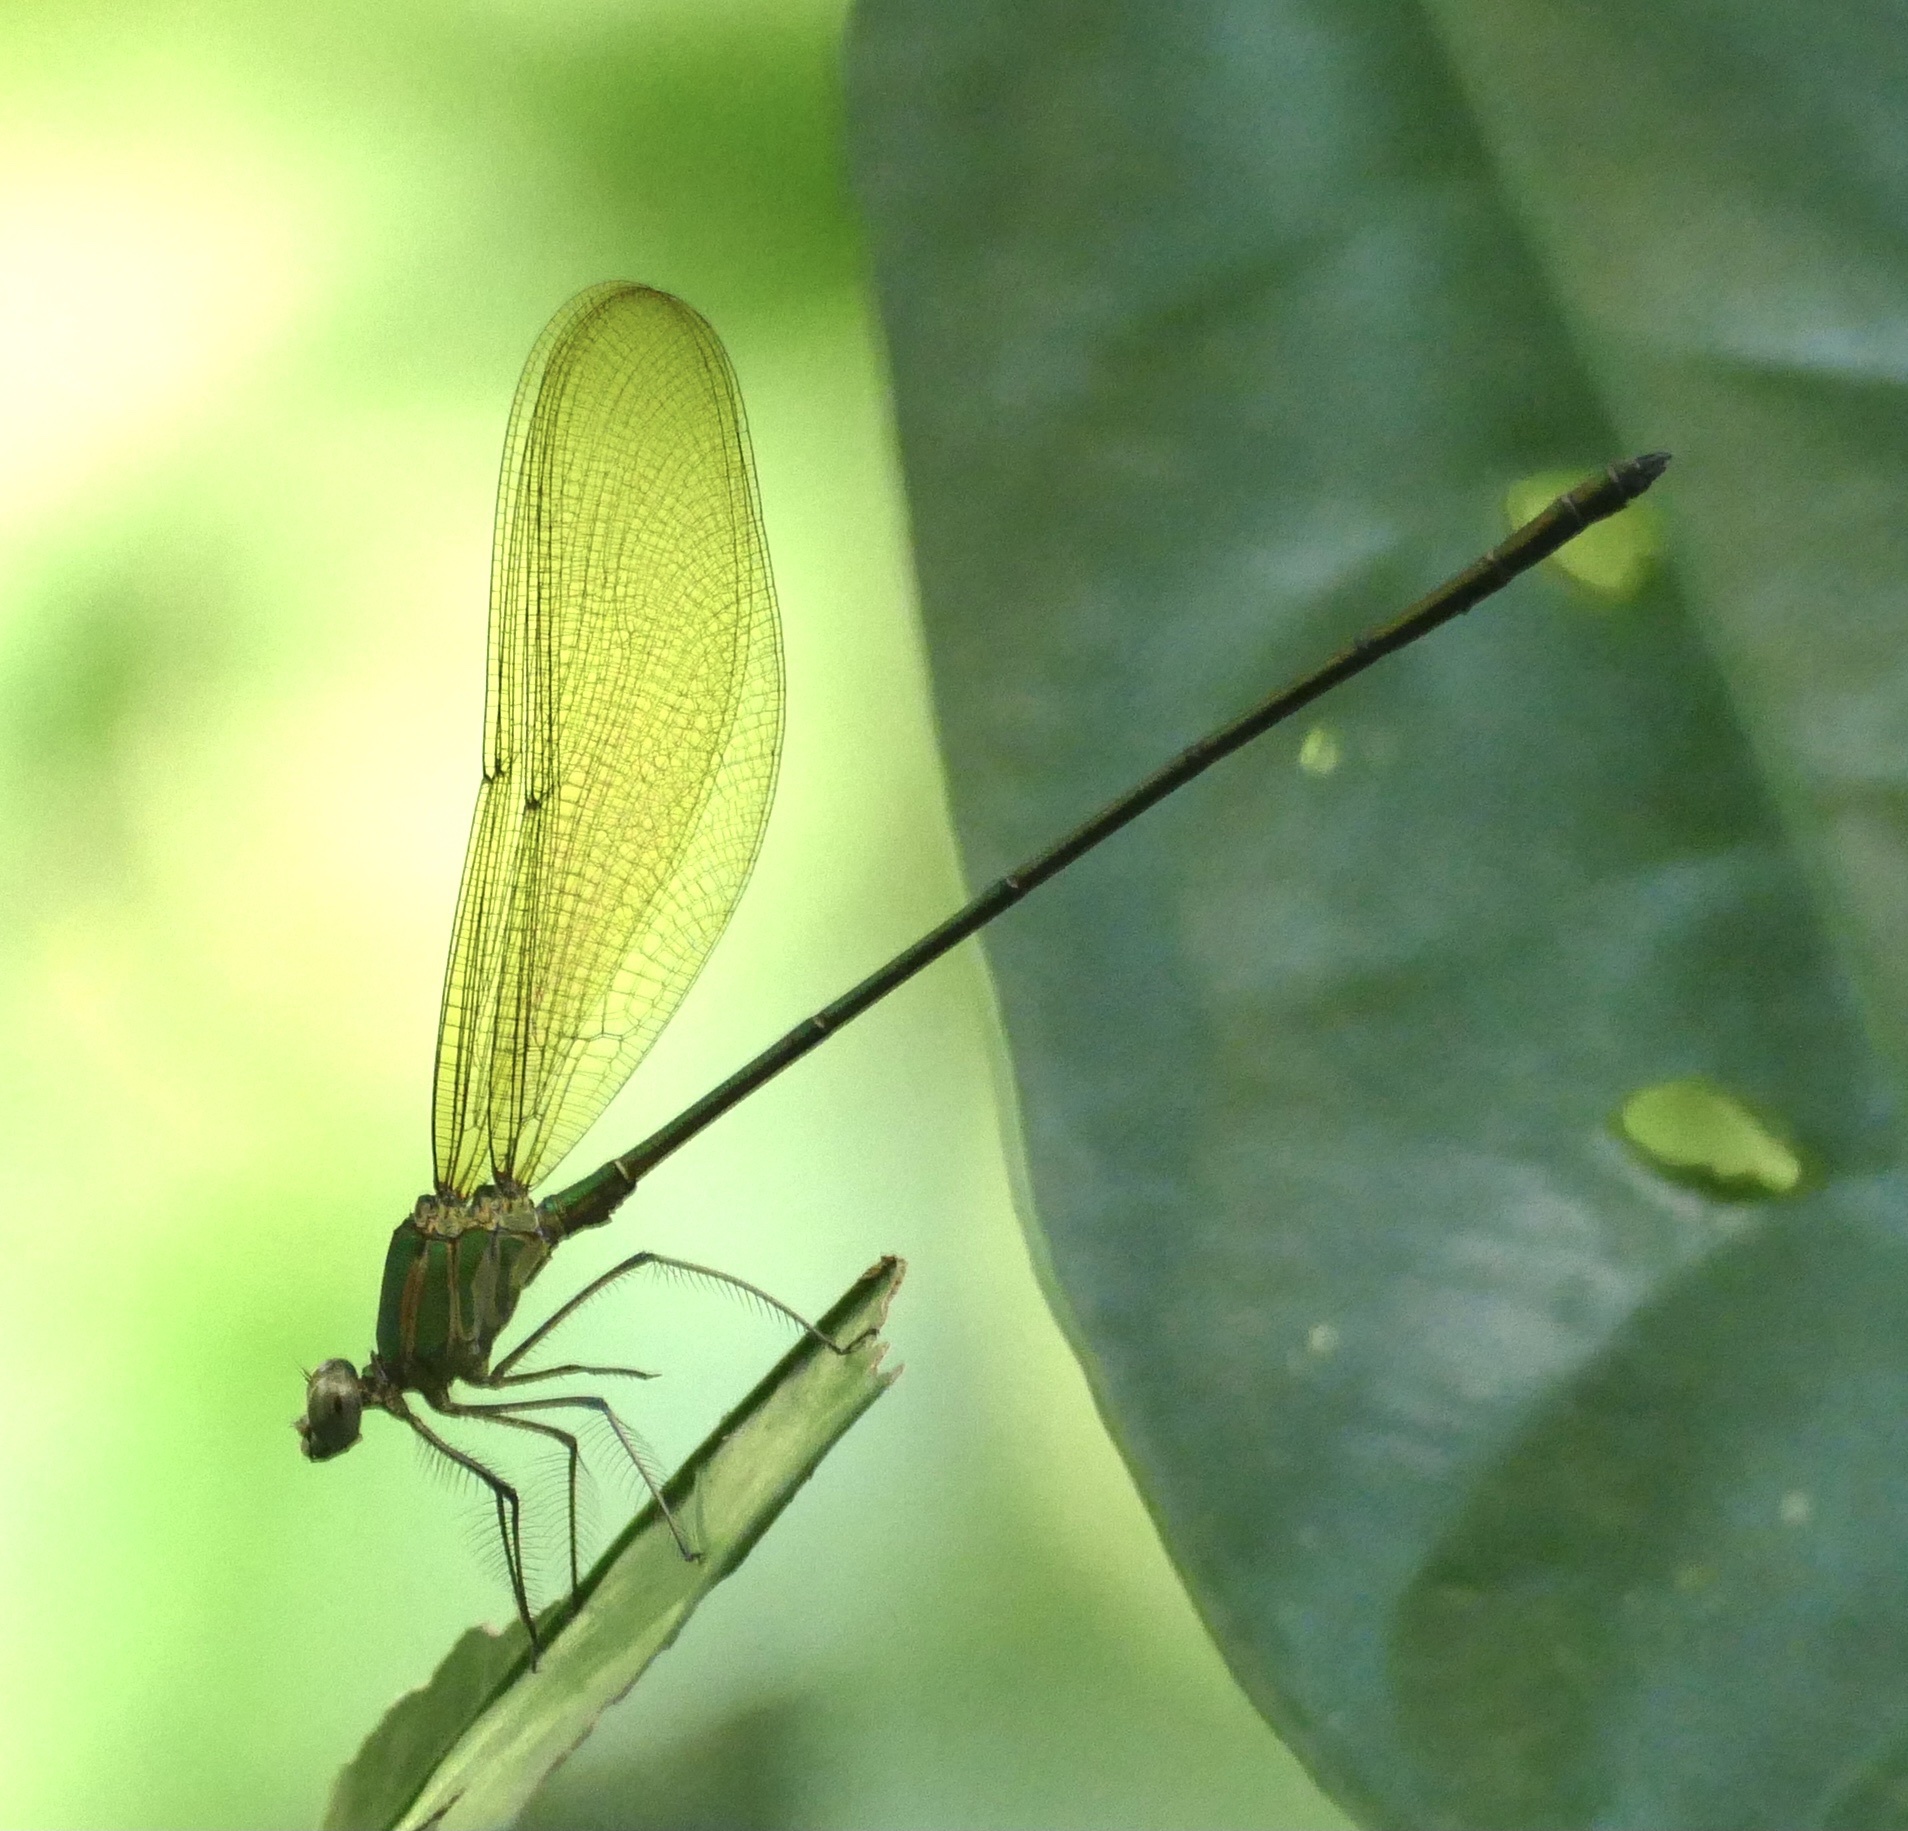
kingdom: Animalia
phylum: Arthropoda
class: Insecta
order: Odonata
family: Calopterygidae
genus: Phaon
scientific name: Phaon iridipennis
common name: Glistening demoiselle
